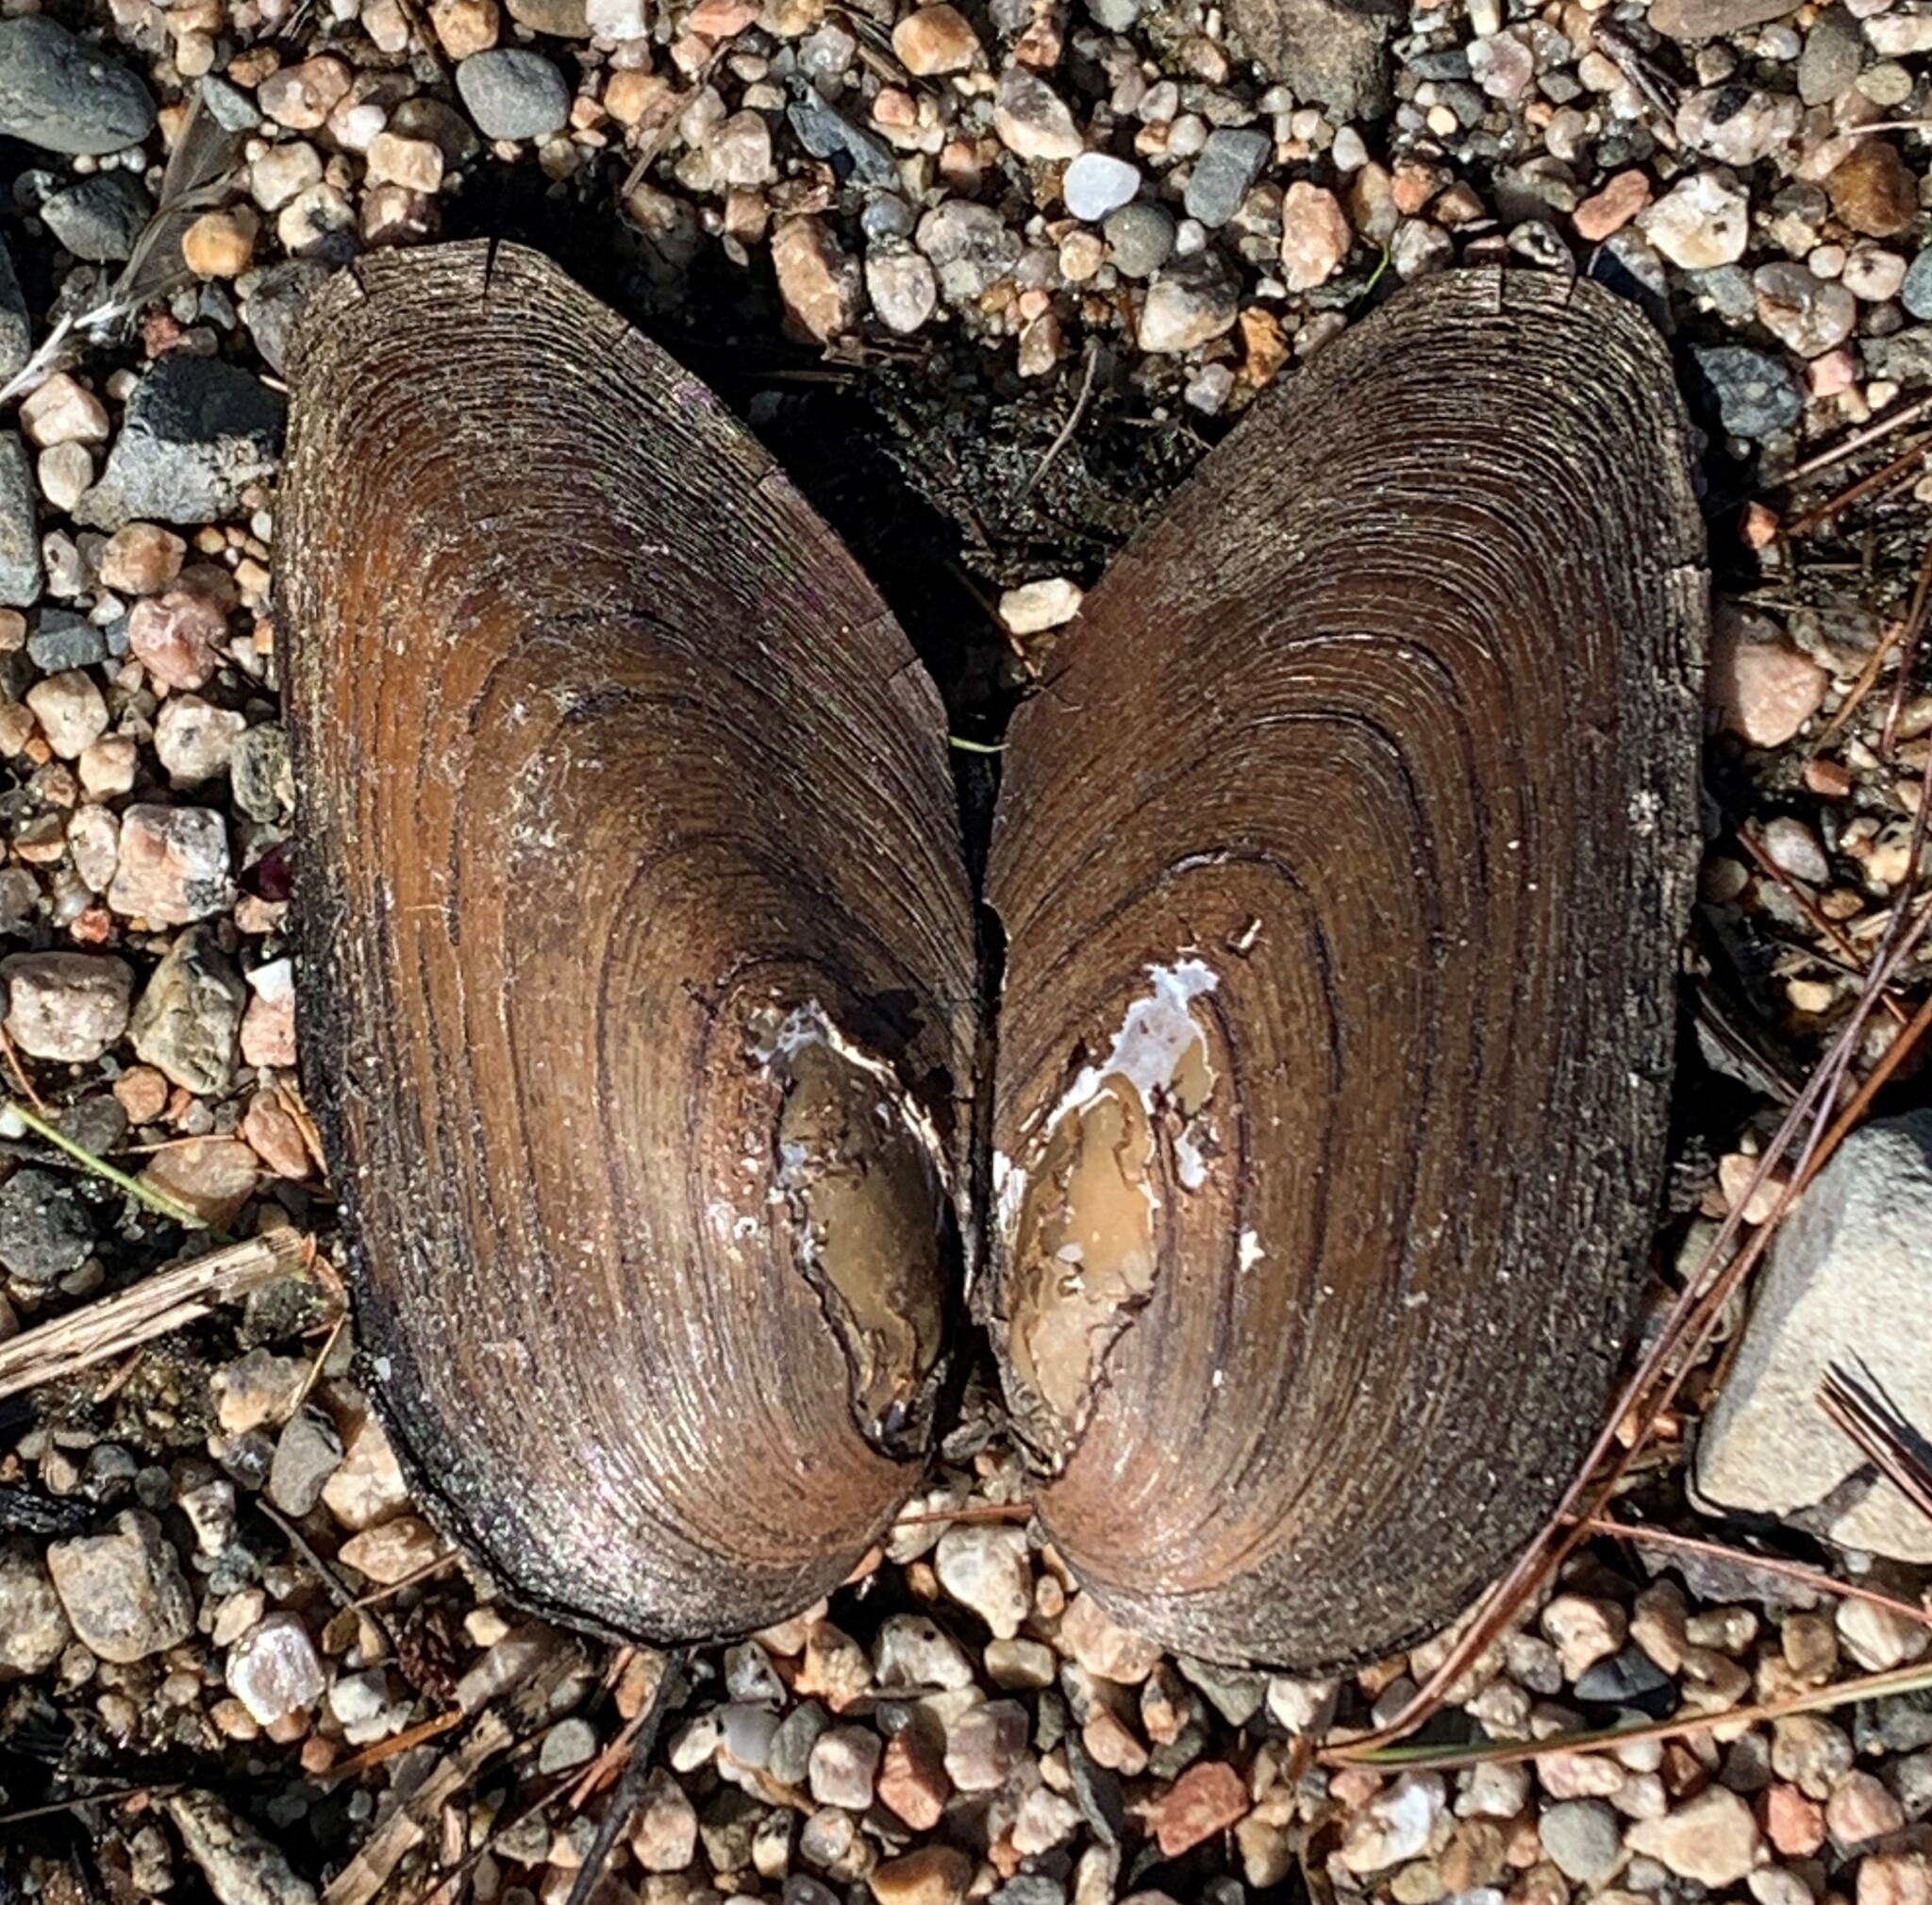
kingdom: Animalia
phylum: Mollusca
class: Bivalvia
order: Unionida
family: Unionidae
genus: Elliptio
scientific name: Elliptio complanata
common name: Eastern elliptio
